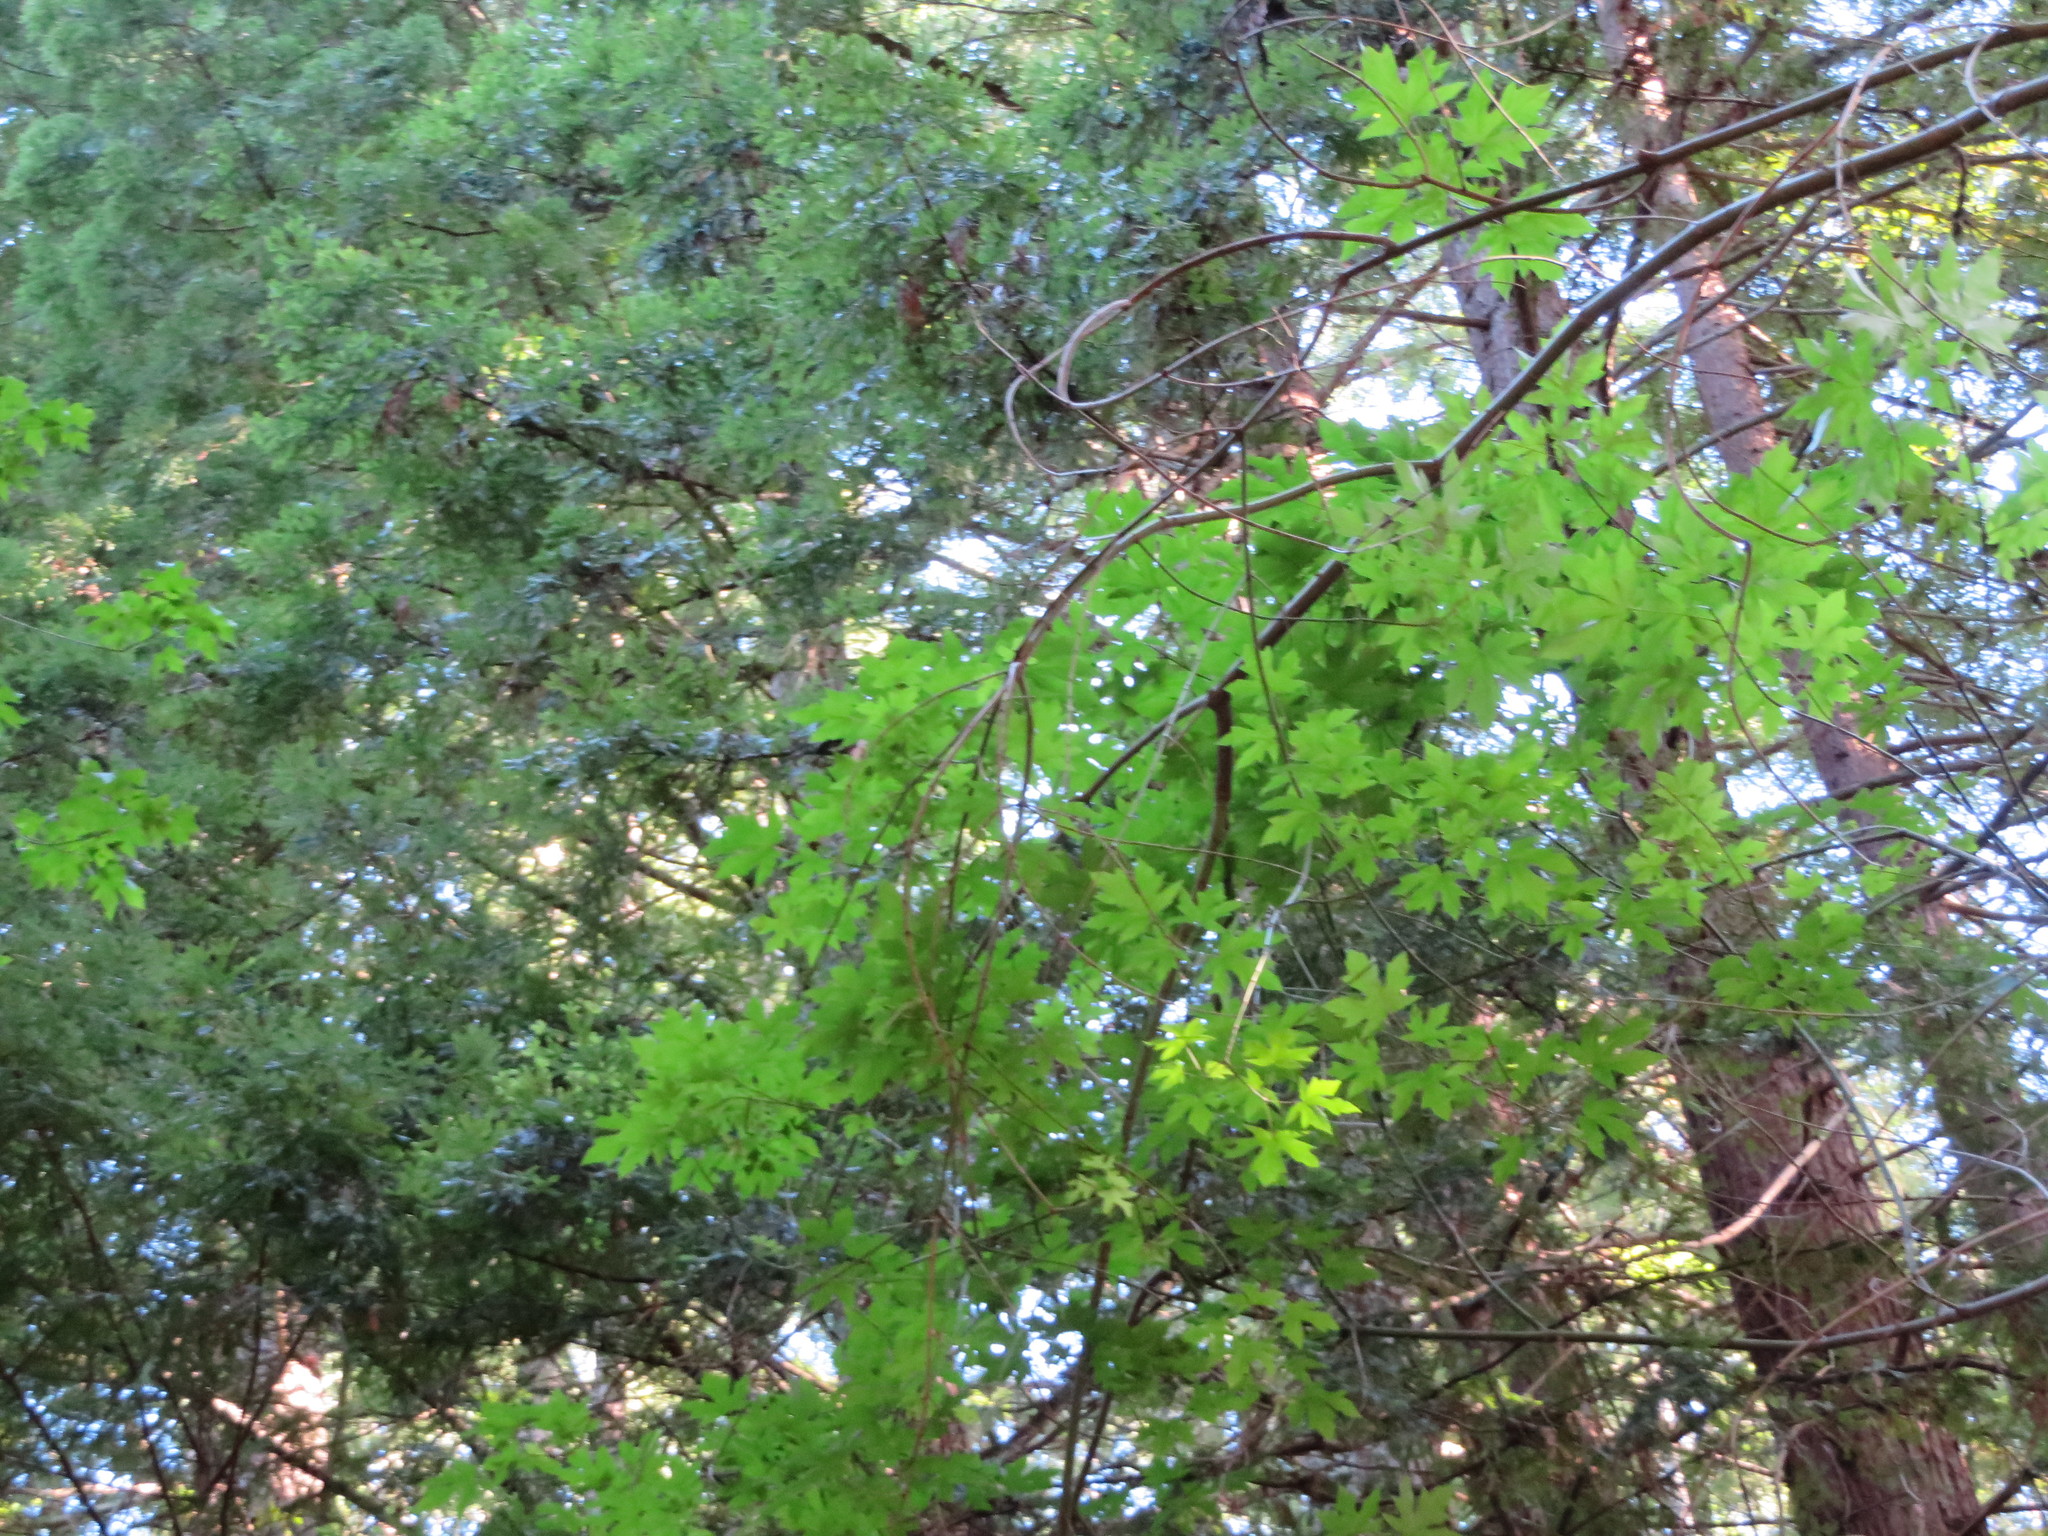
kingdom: Plantae
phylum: Tracheophyta
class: Magnoliopsida
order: Sapindales
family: Sapindaceae
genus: Acer
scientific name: Acer macrophyllum
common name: Oregon maple
